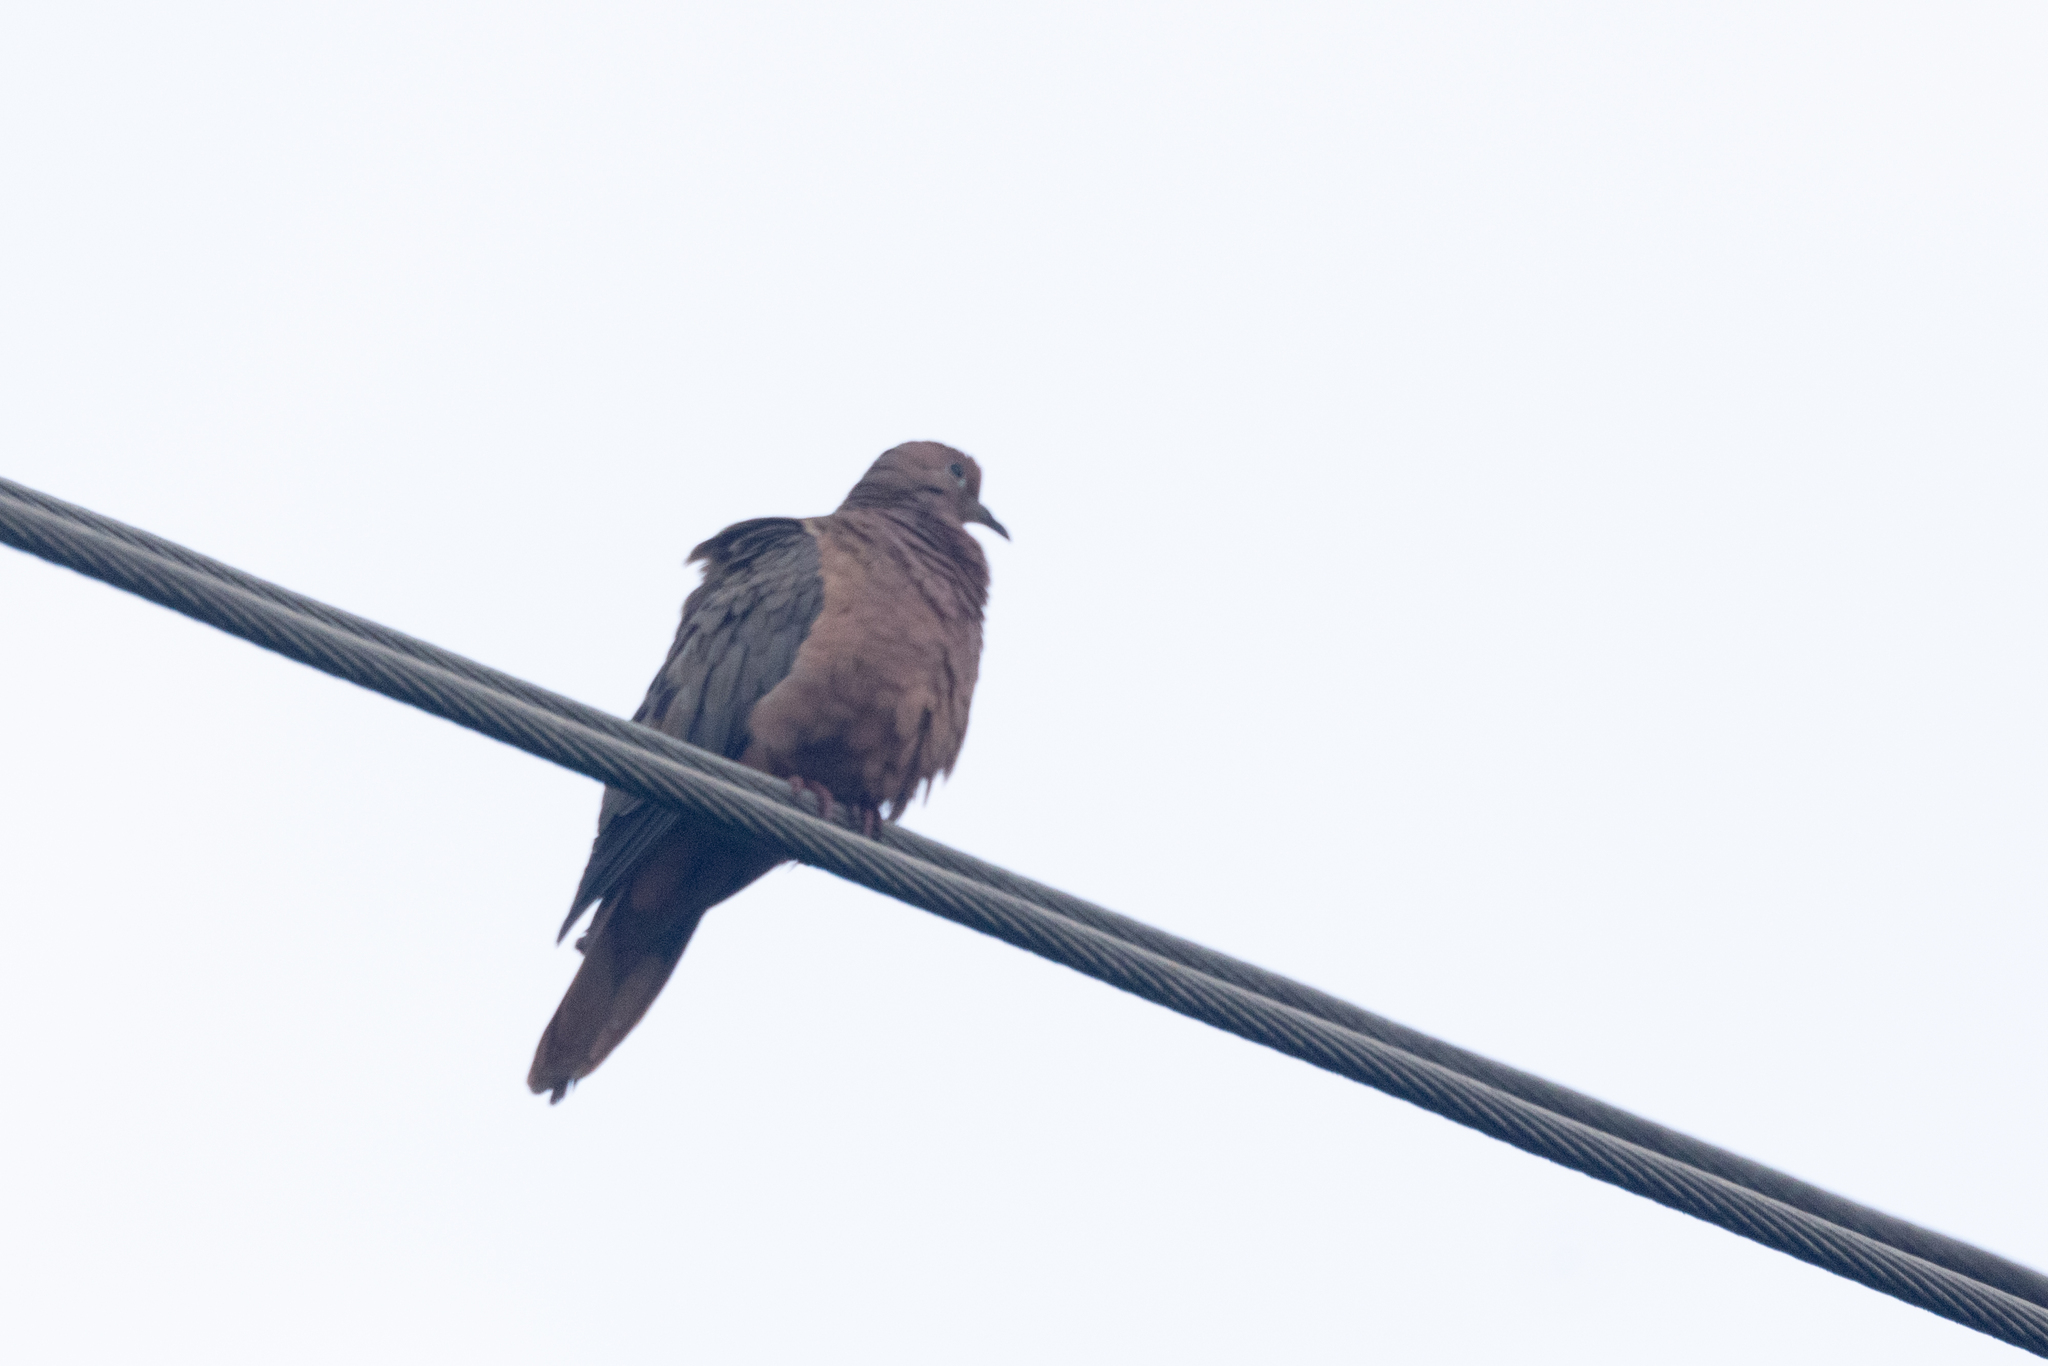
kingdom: Animalia
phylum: Chordata
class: Aves
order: Columbiformes
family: Columbidae
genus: Zenaida
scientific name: Zenaida auriculata
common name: Eared dove
